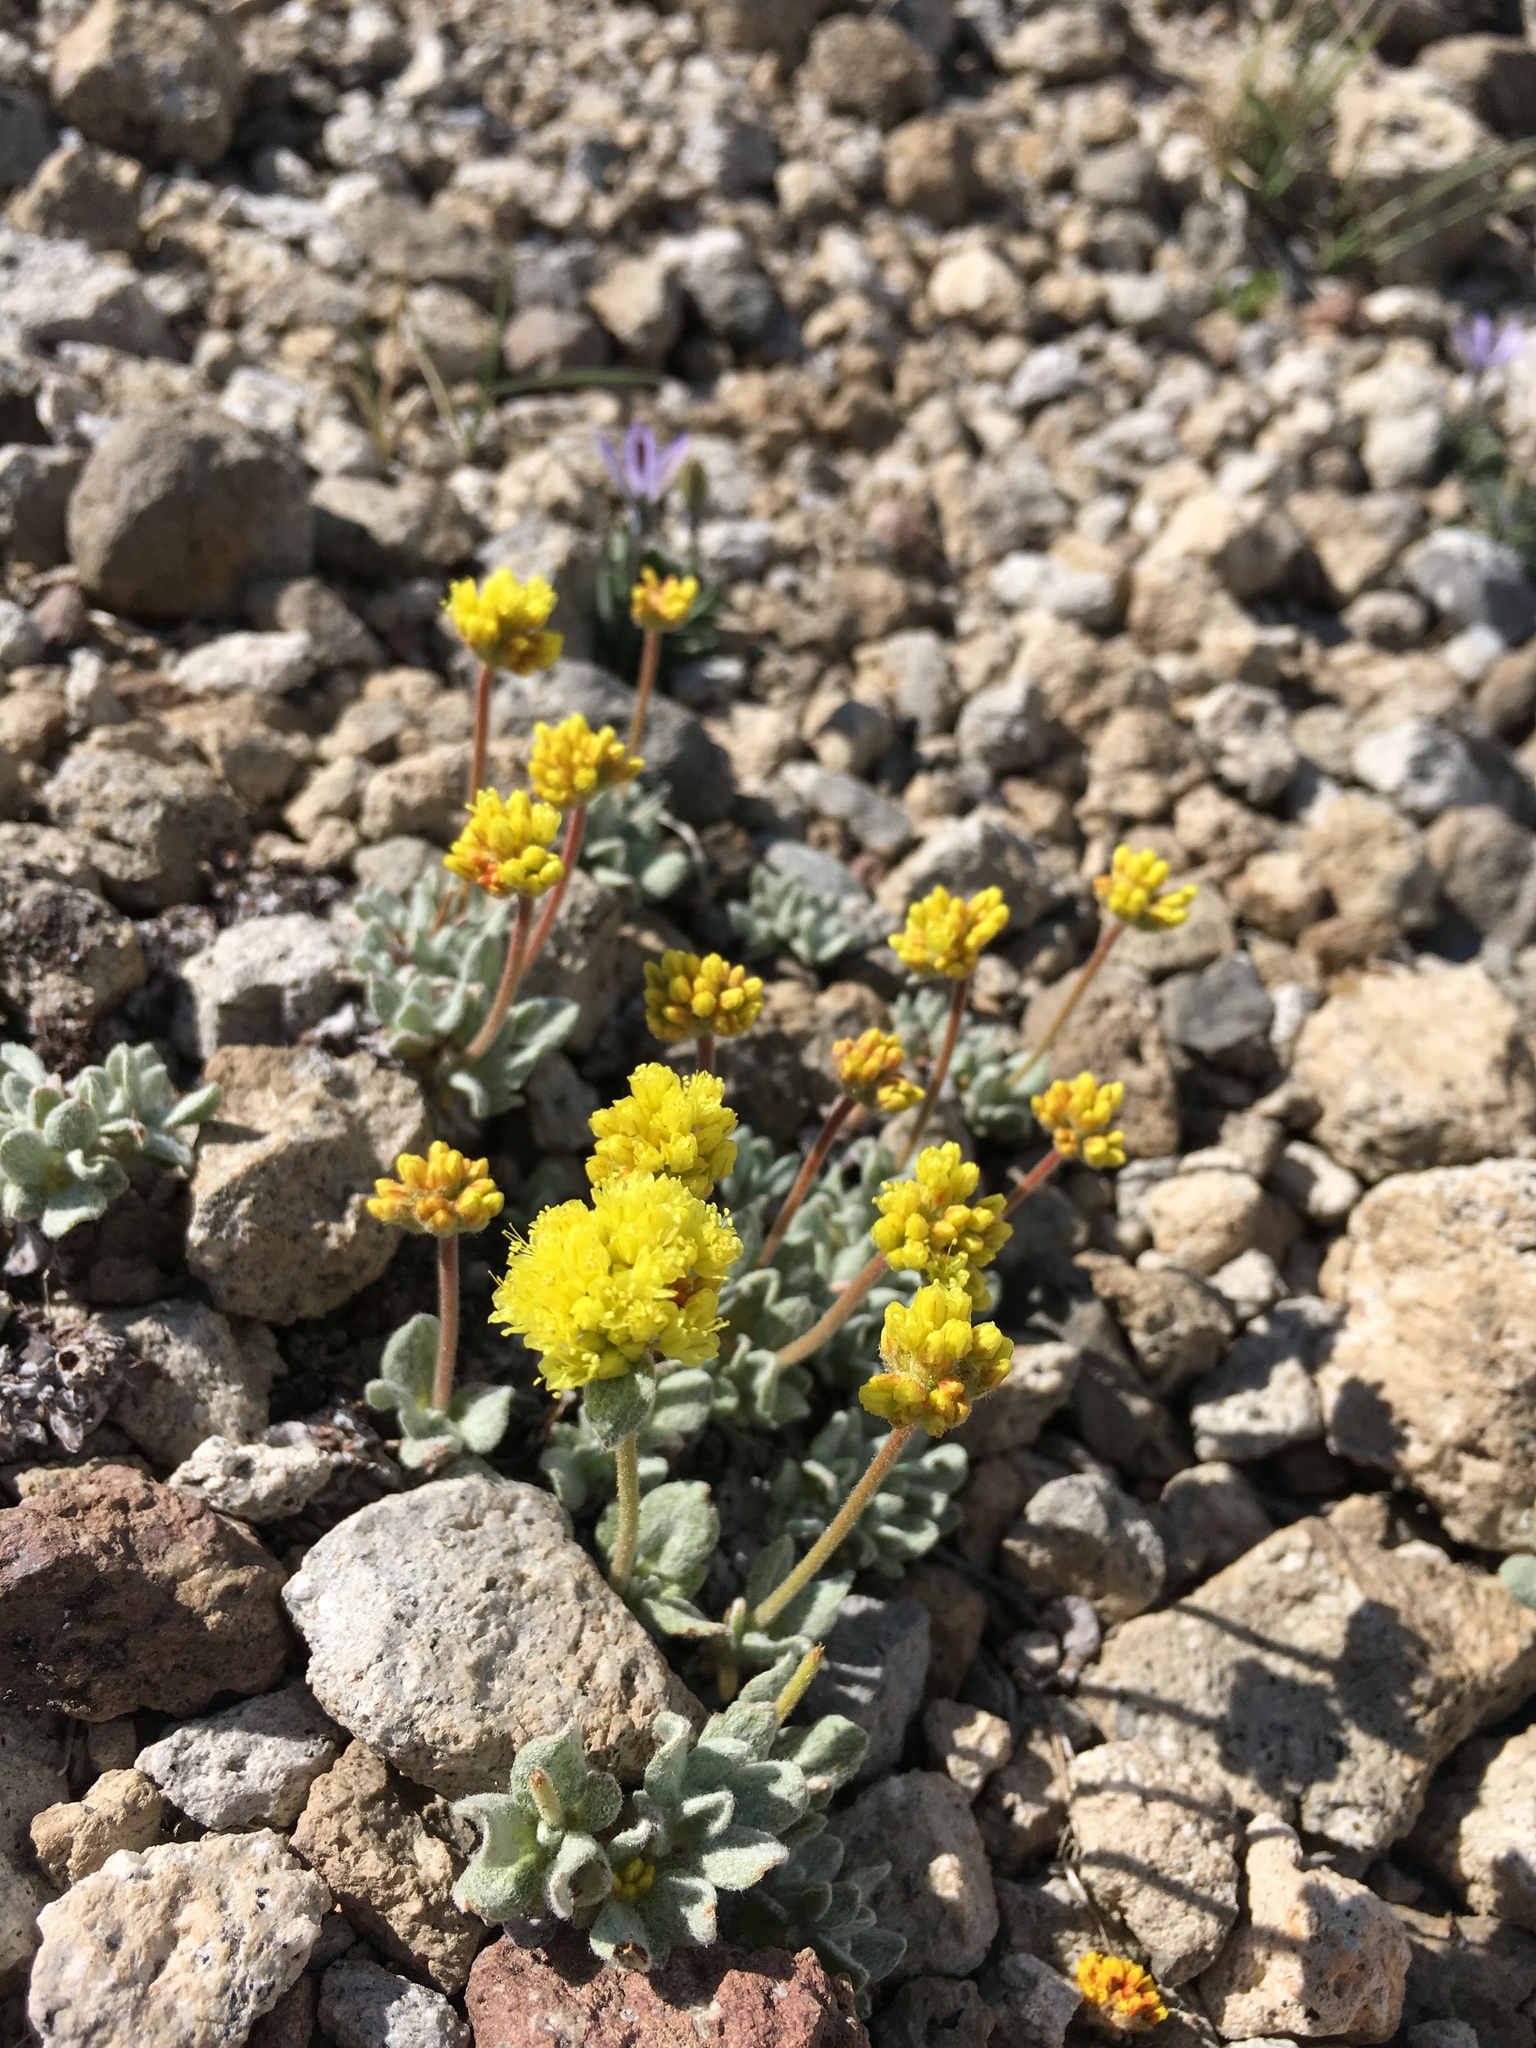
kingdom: Plantae
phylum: Tracheophyta
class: Magnoliopsida
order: Caryophyllales
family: Polygonaceae
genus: Eriogonum
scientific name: Eriogonum rosense
